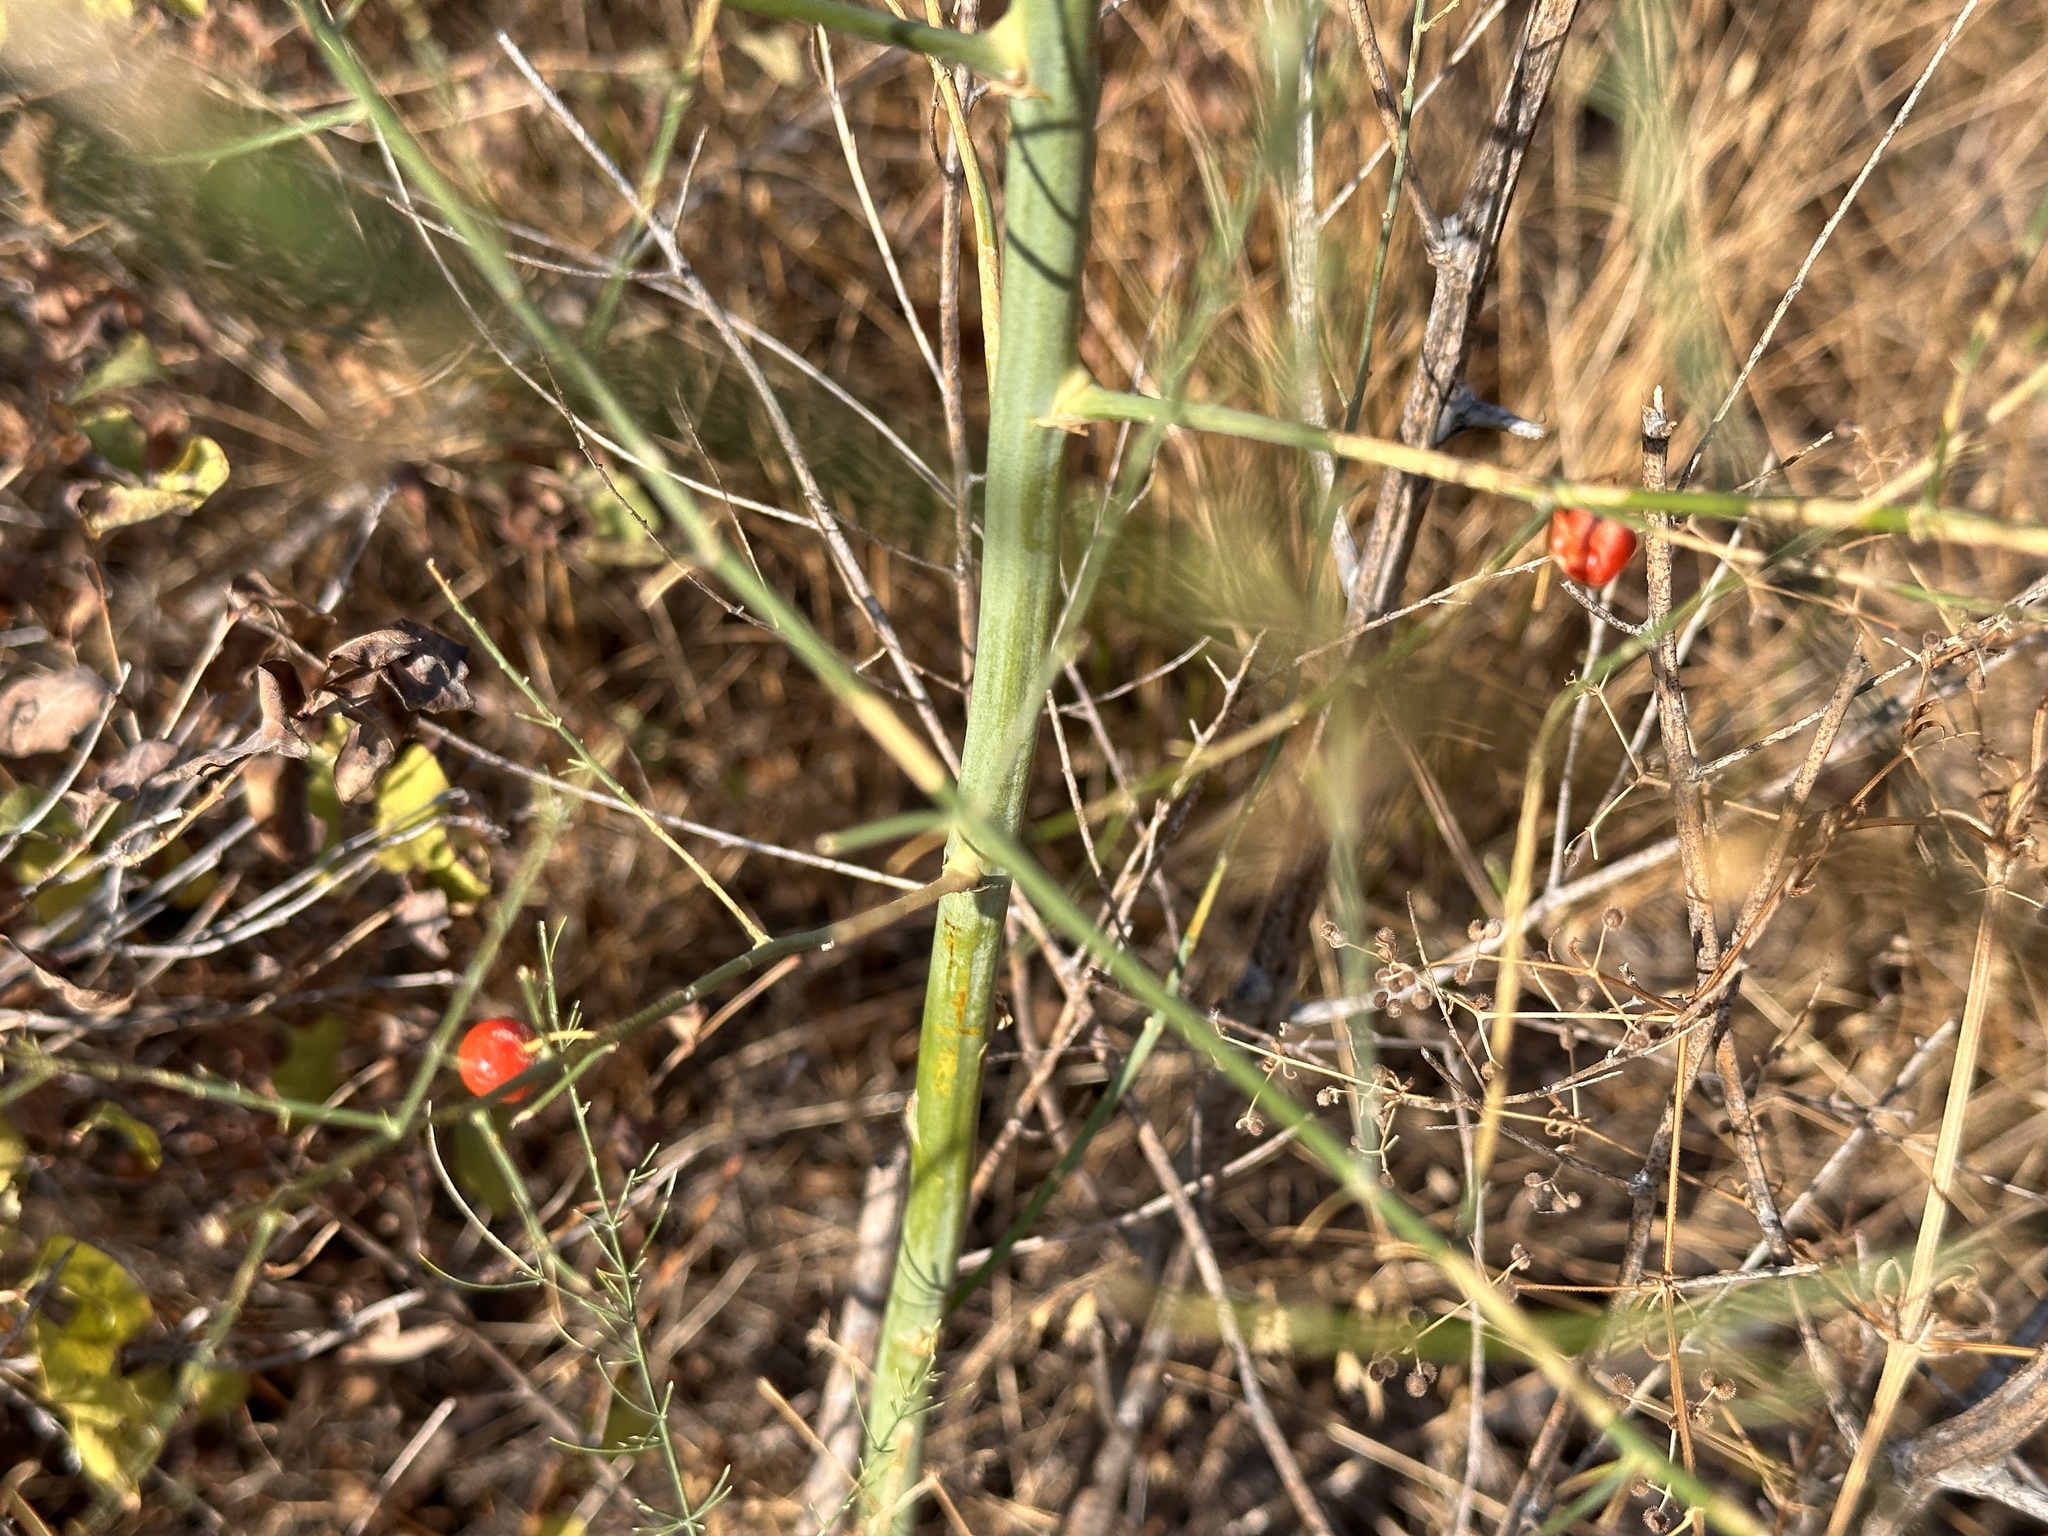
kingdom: Plantae
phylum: Tracheophyta
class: Liliopsida
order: Asparagales
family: Asparagaceae
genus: Asparagus
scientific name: Asparagus officinalis
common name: Garden asparagus
